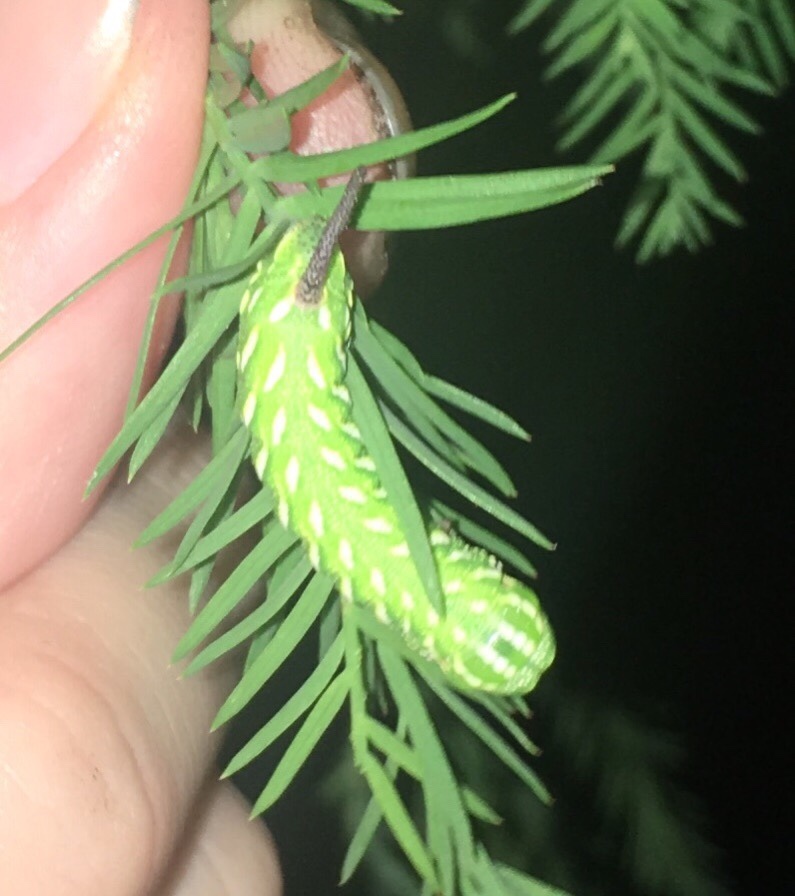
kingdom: Animalia
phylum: Arthropoda
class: Insecta
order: Lepidoptera
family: Sphingidae
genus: Isoparce
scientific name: Isoparce cupressi
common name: Cypress sphinx
